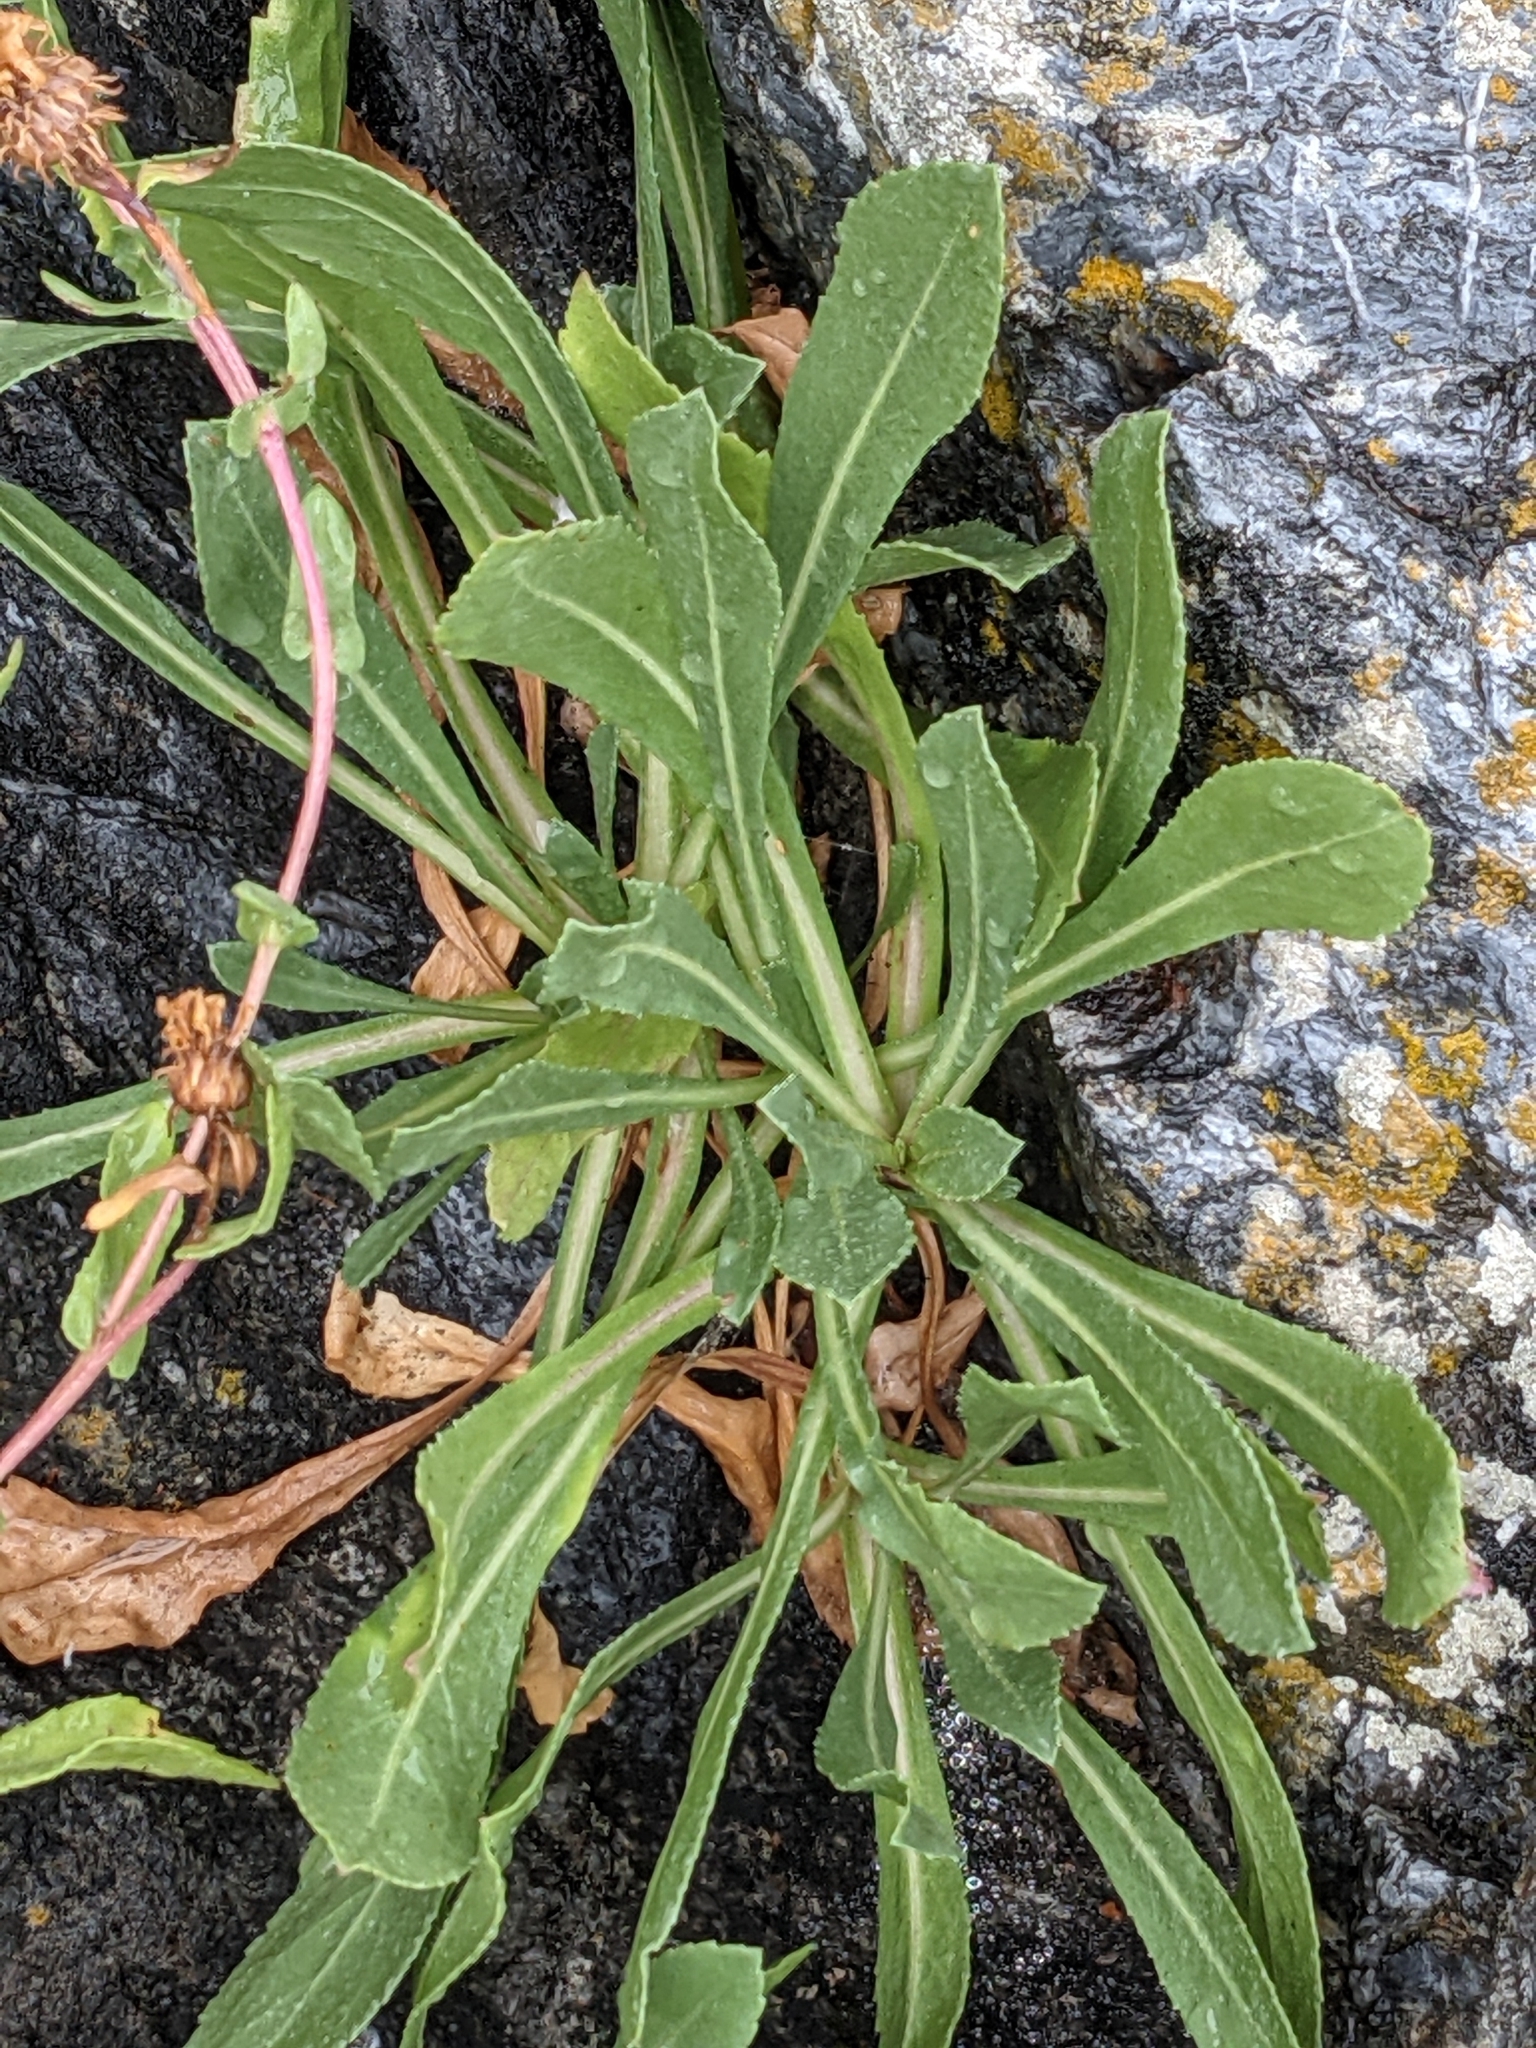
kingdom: Plantae
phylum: Tracheophyta
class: Magnoliopsida
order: Asterales
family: Asteraceae
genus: Grindelia
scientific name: Grindelia hirsutula
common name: Hairy gumweed
